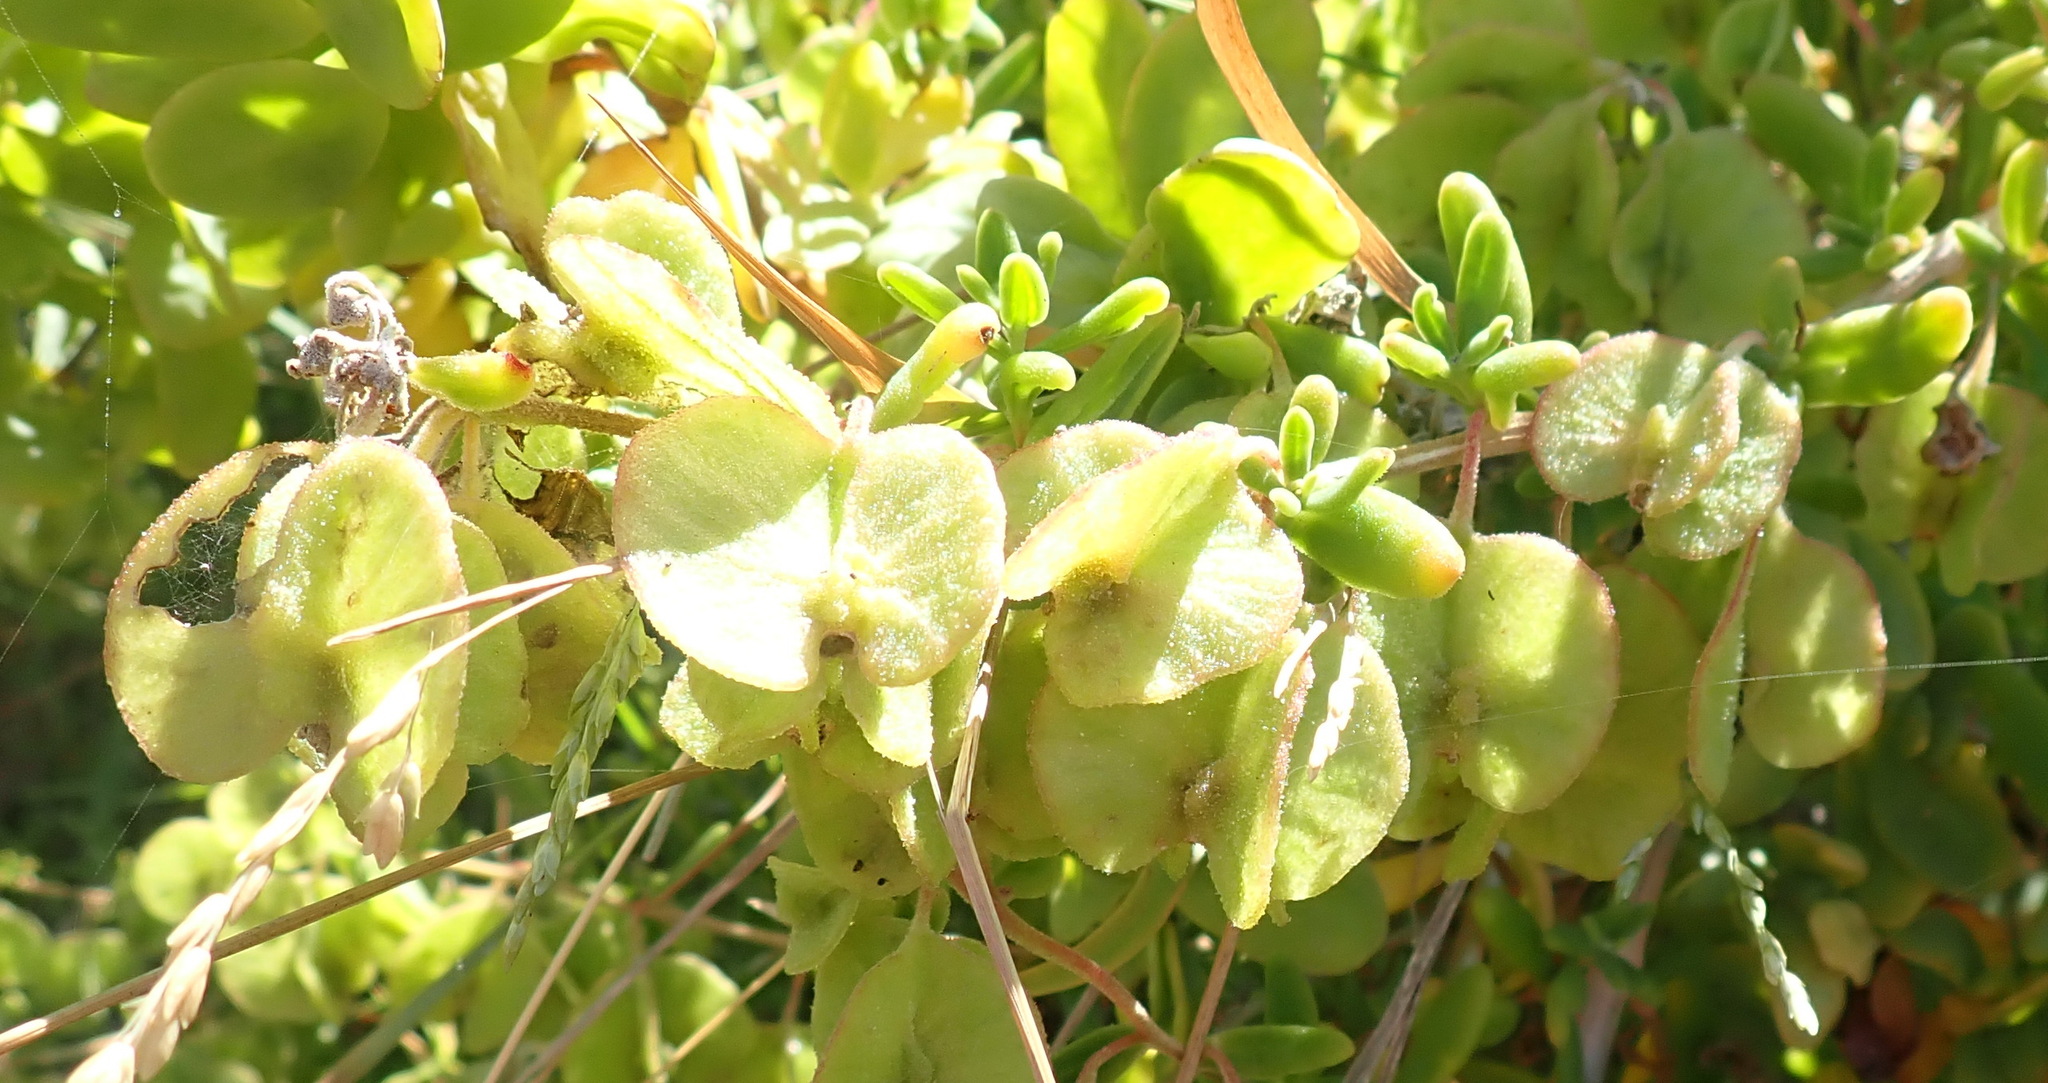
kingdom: Plantae
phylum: Tracheophyta
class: Magnoliopsida
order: Zygophyllales
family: Zygophyllaceae
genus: Roepera
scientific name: Roepera morgsana
